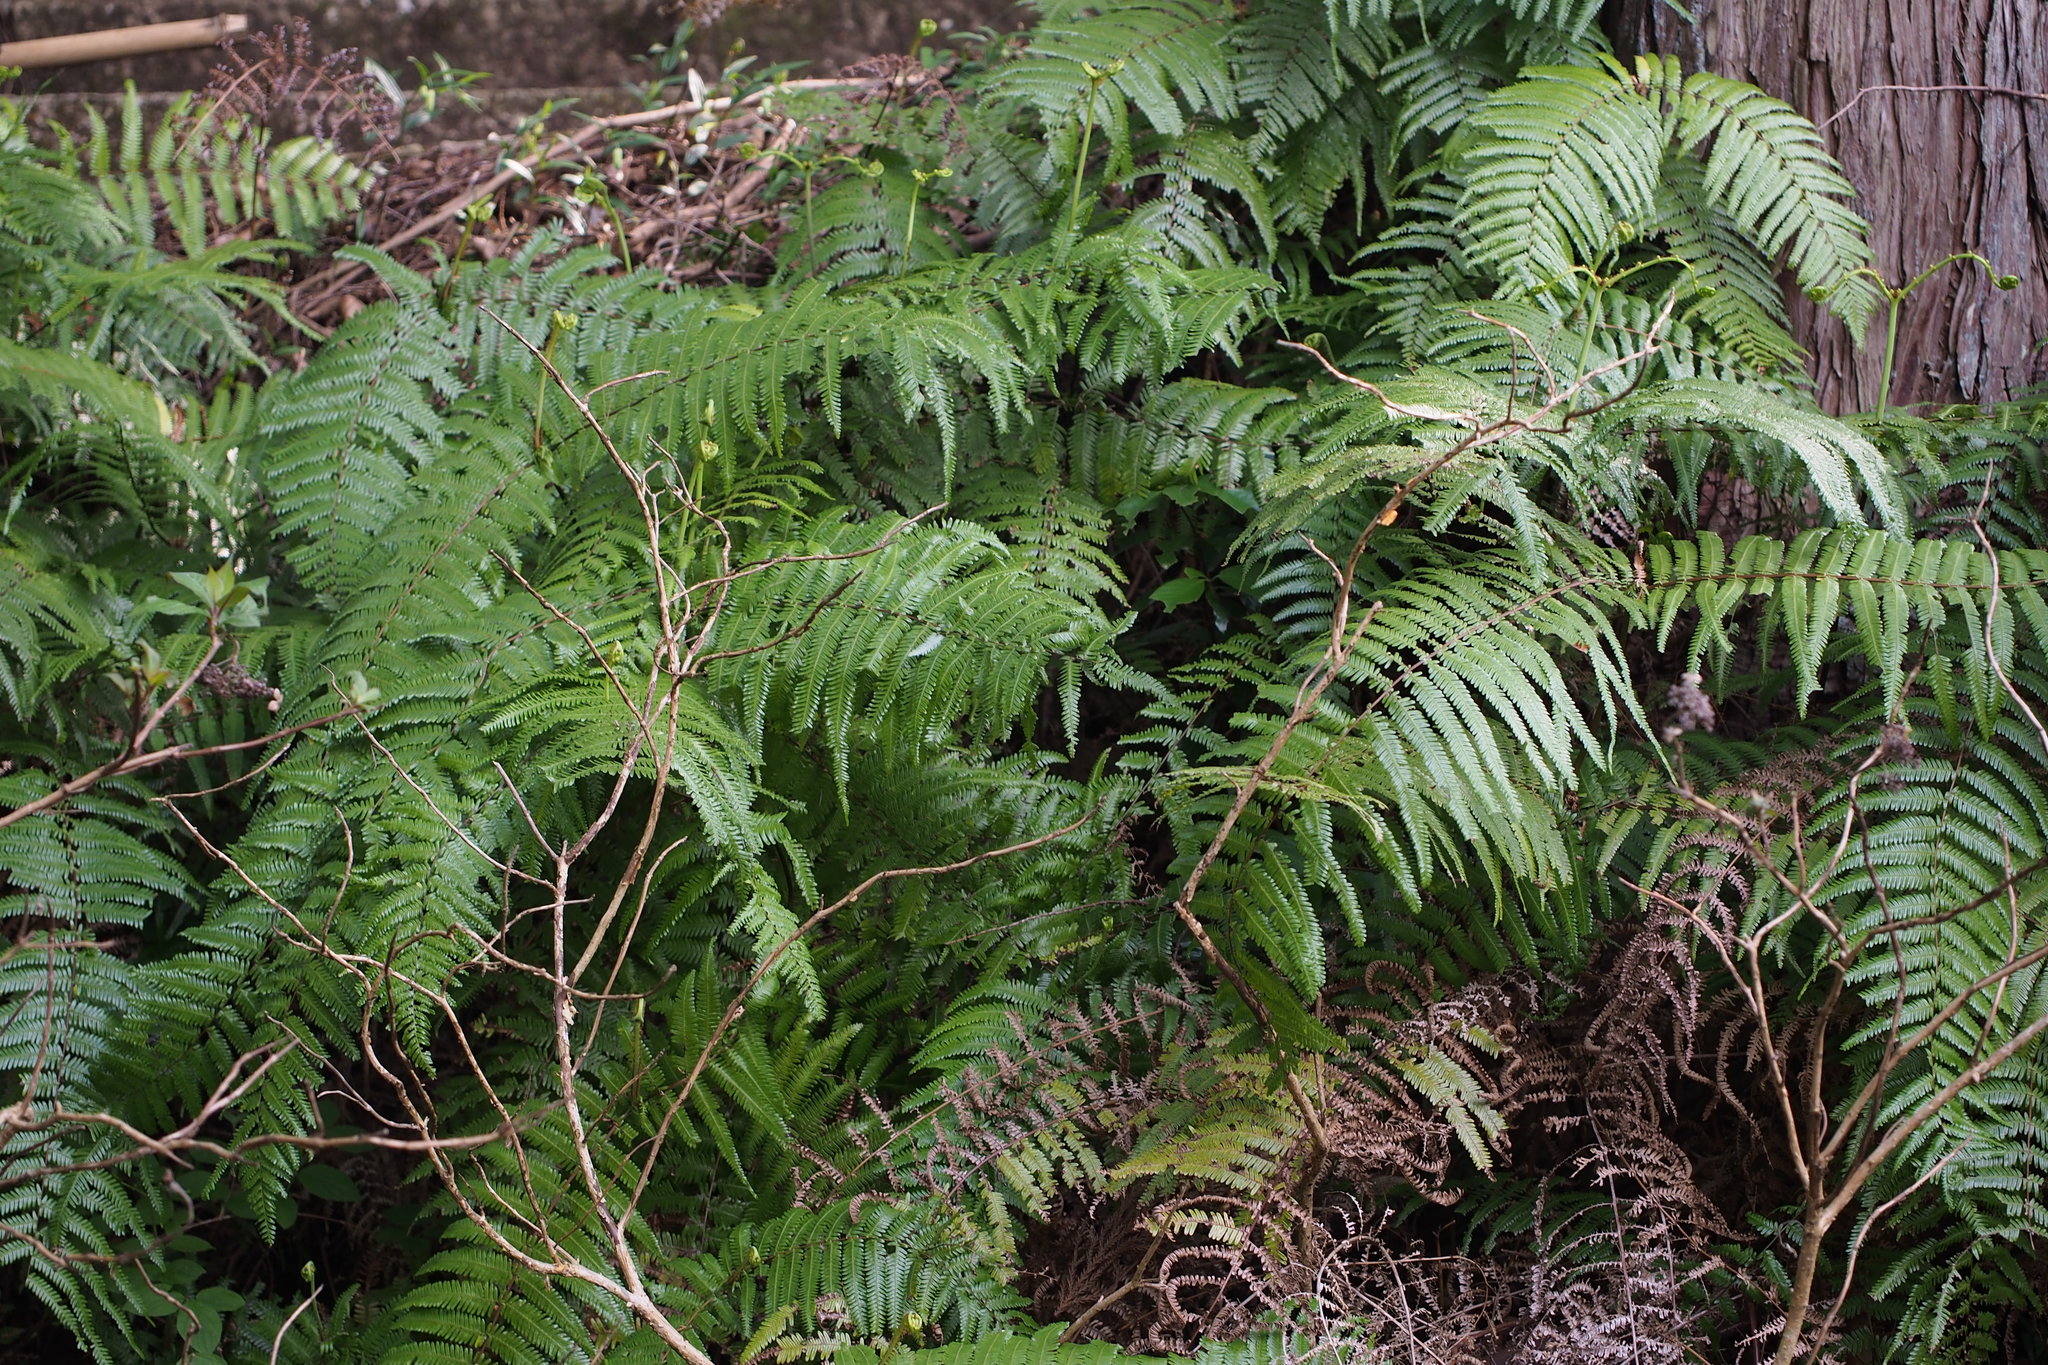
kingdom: Plantae
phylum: Tracheophyta
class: Polypodiopsida
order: Gleicheniales
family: Gleicheniaceae
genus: Diplopterygium
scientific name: Diplopterygium glaucum
